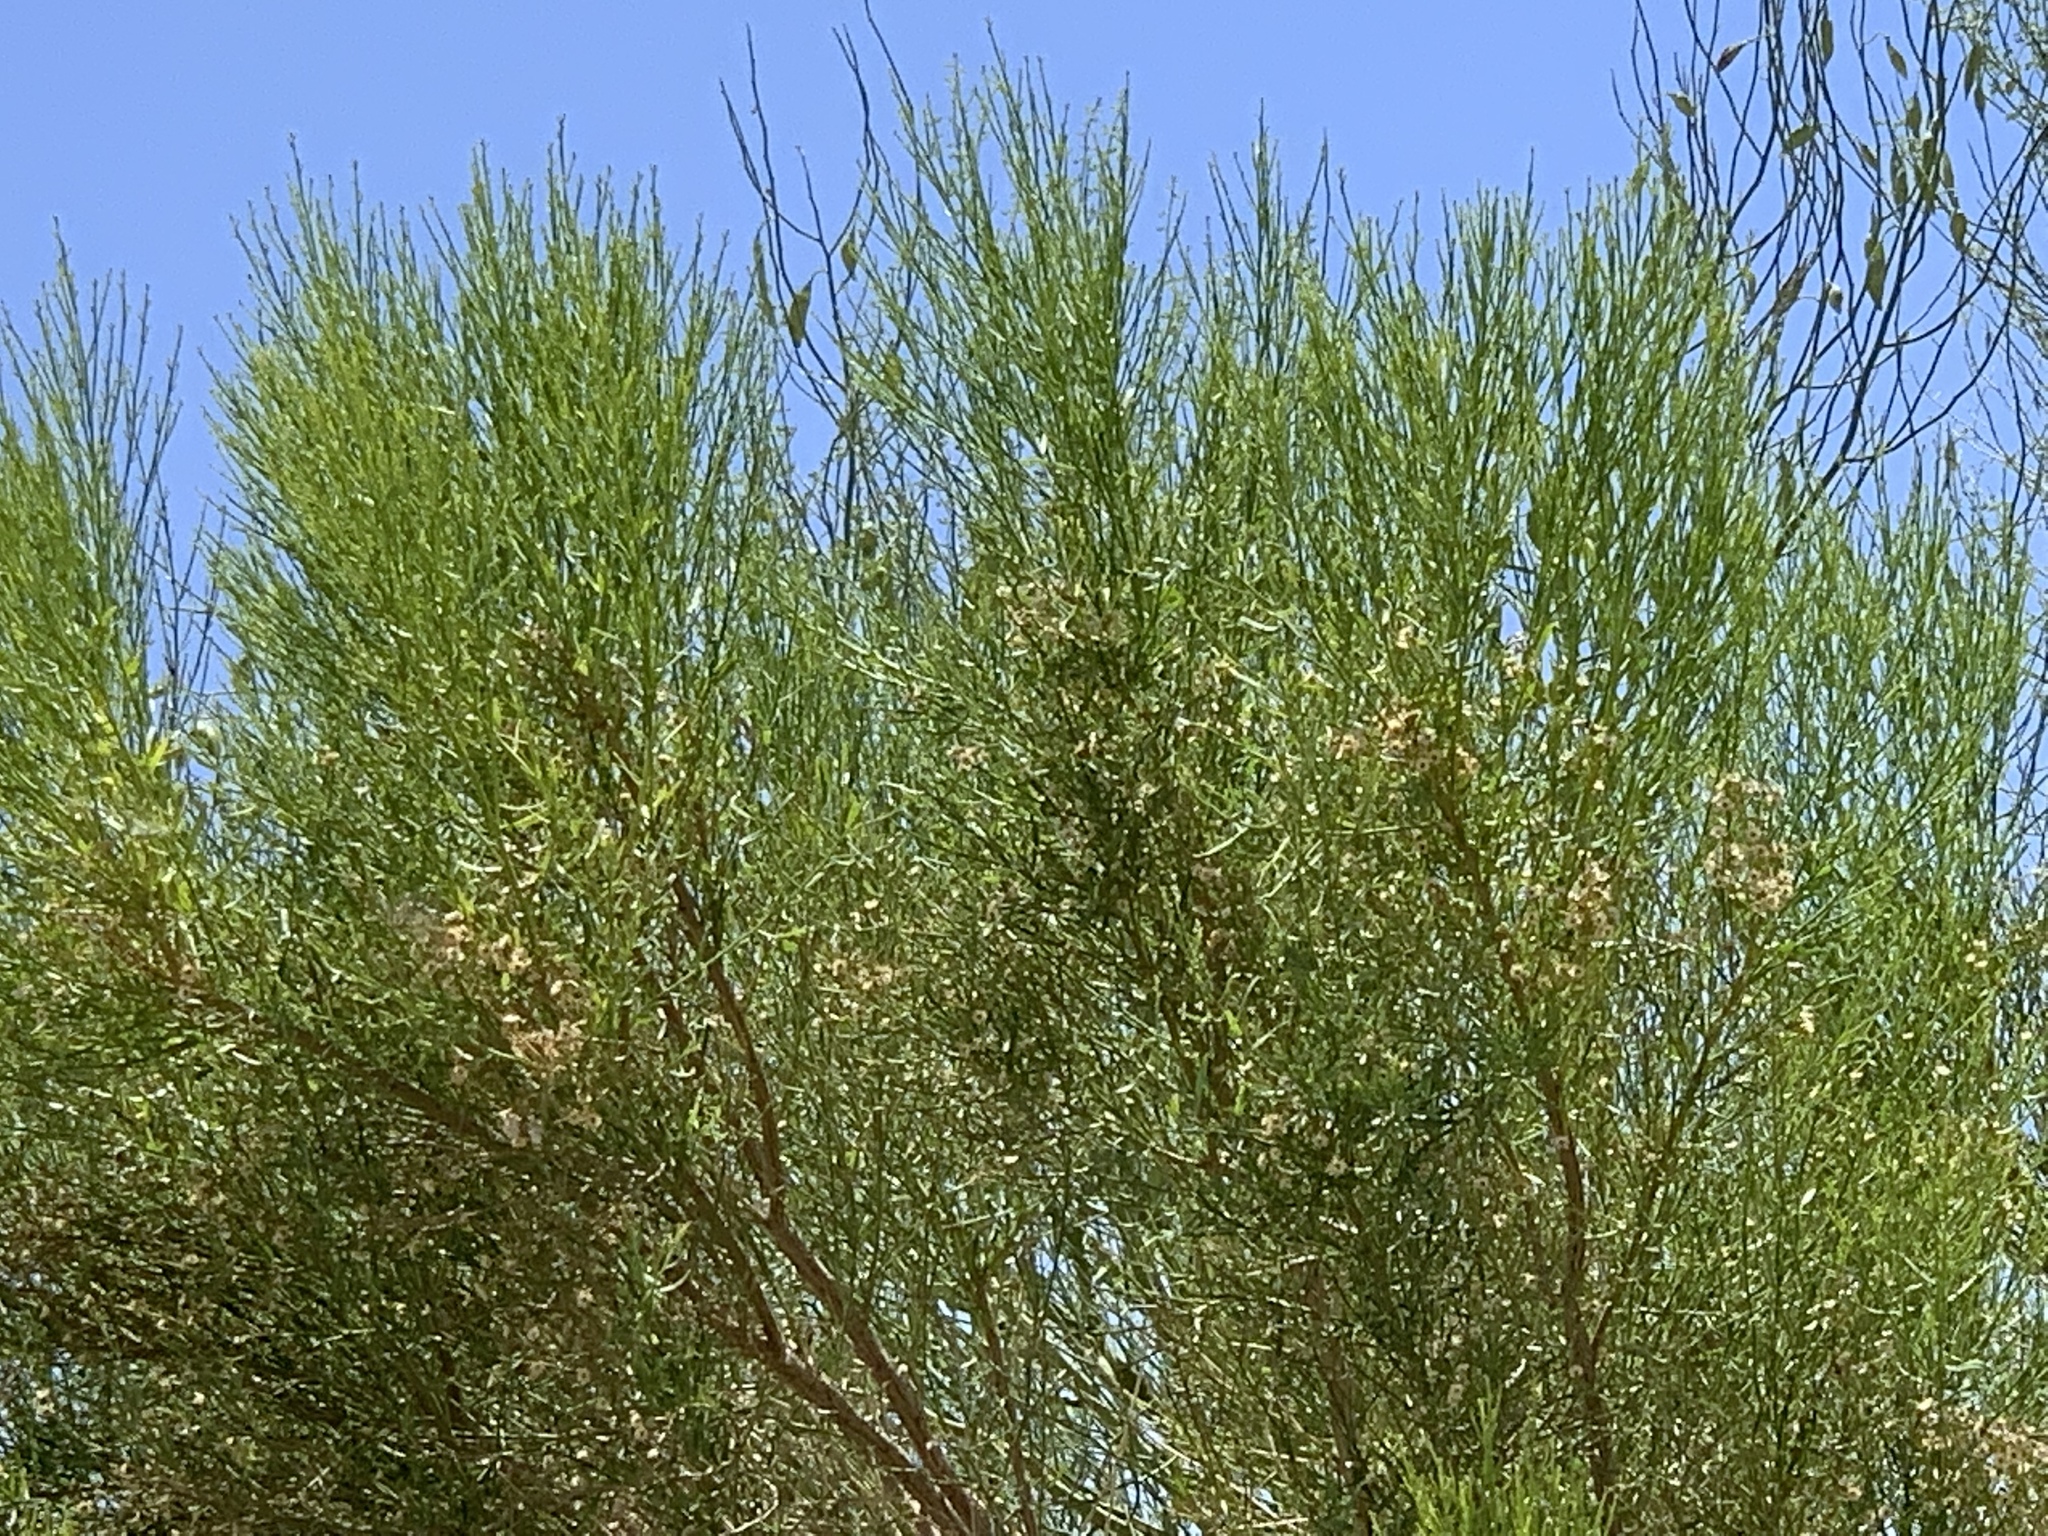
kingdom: Plantae
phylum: Tracheophyta
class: Magnoliopsida
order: Fabales
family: Fabaceae
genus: Parkinsonia
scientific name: Parkinsonia florida
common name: Blue paloverde
